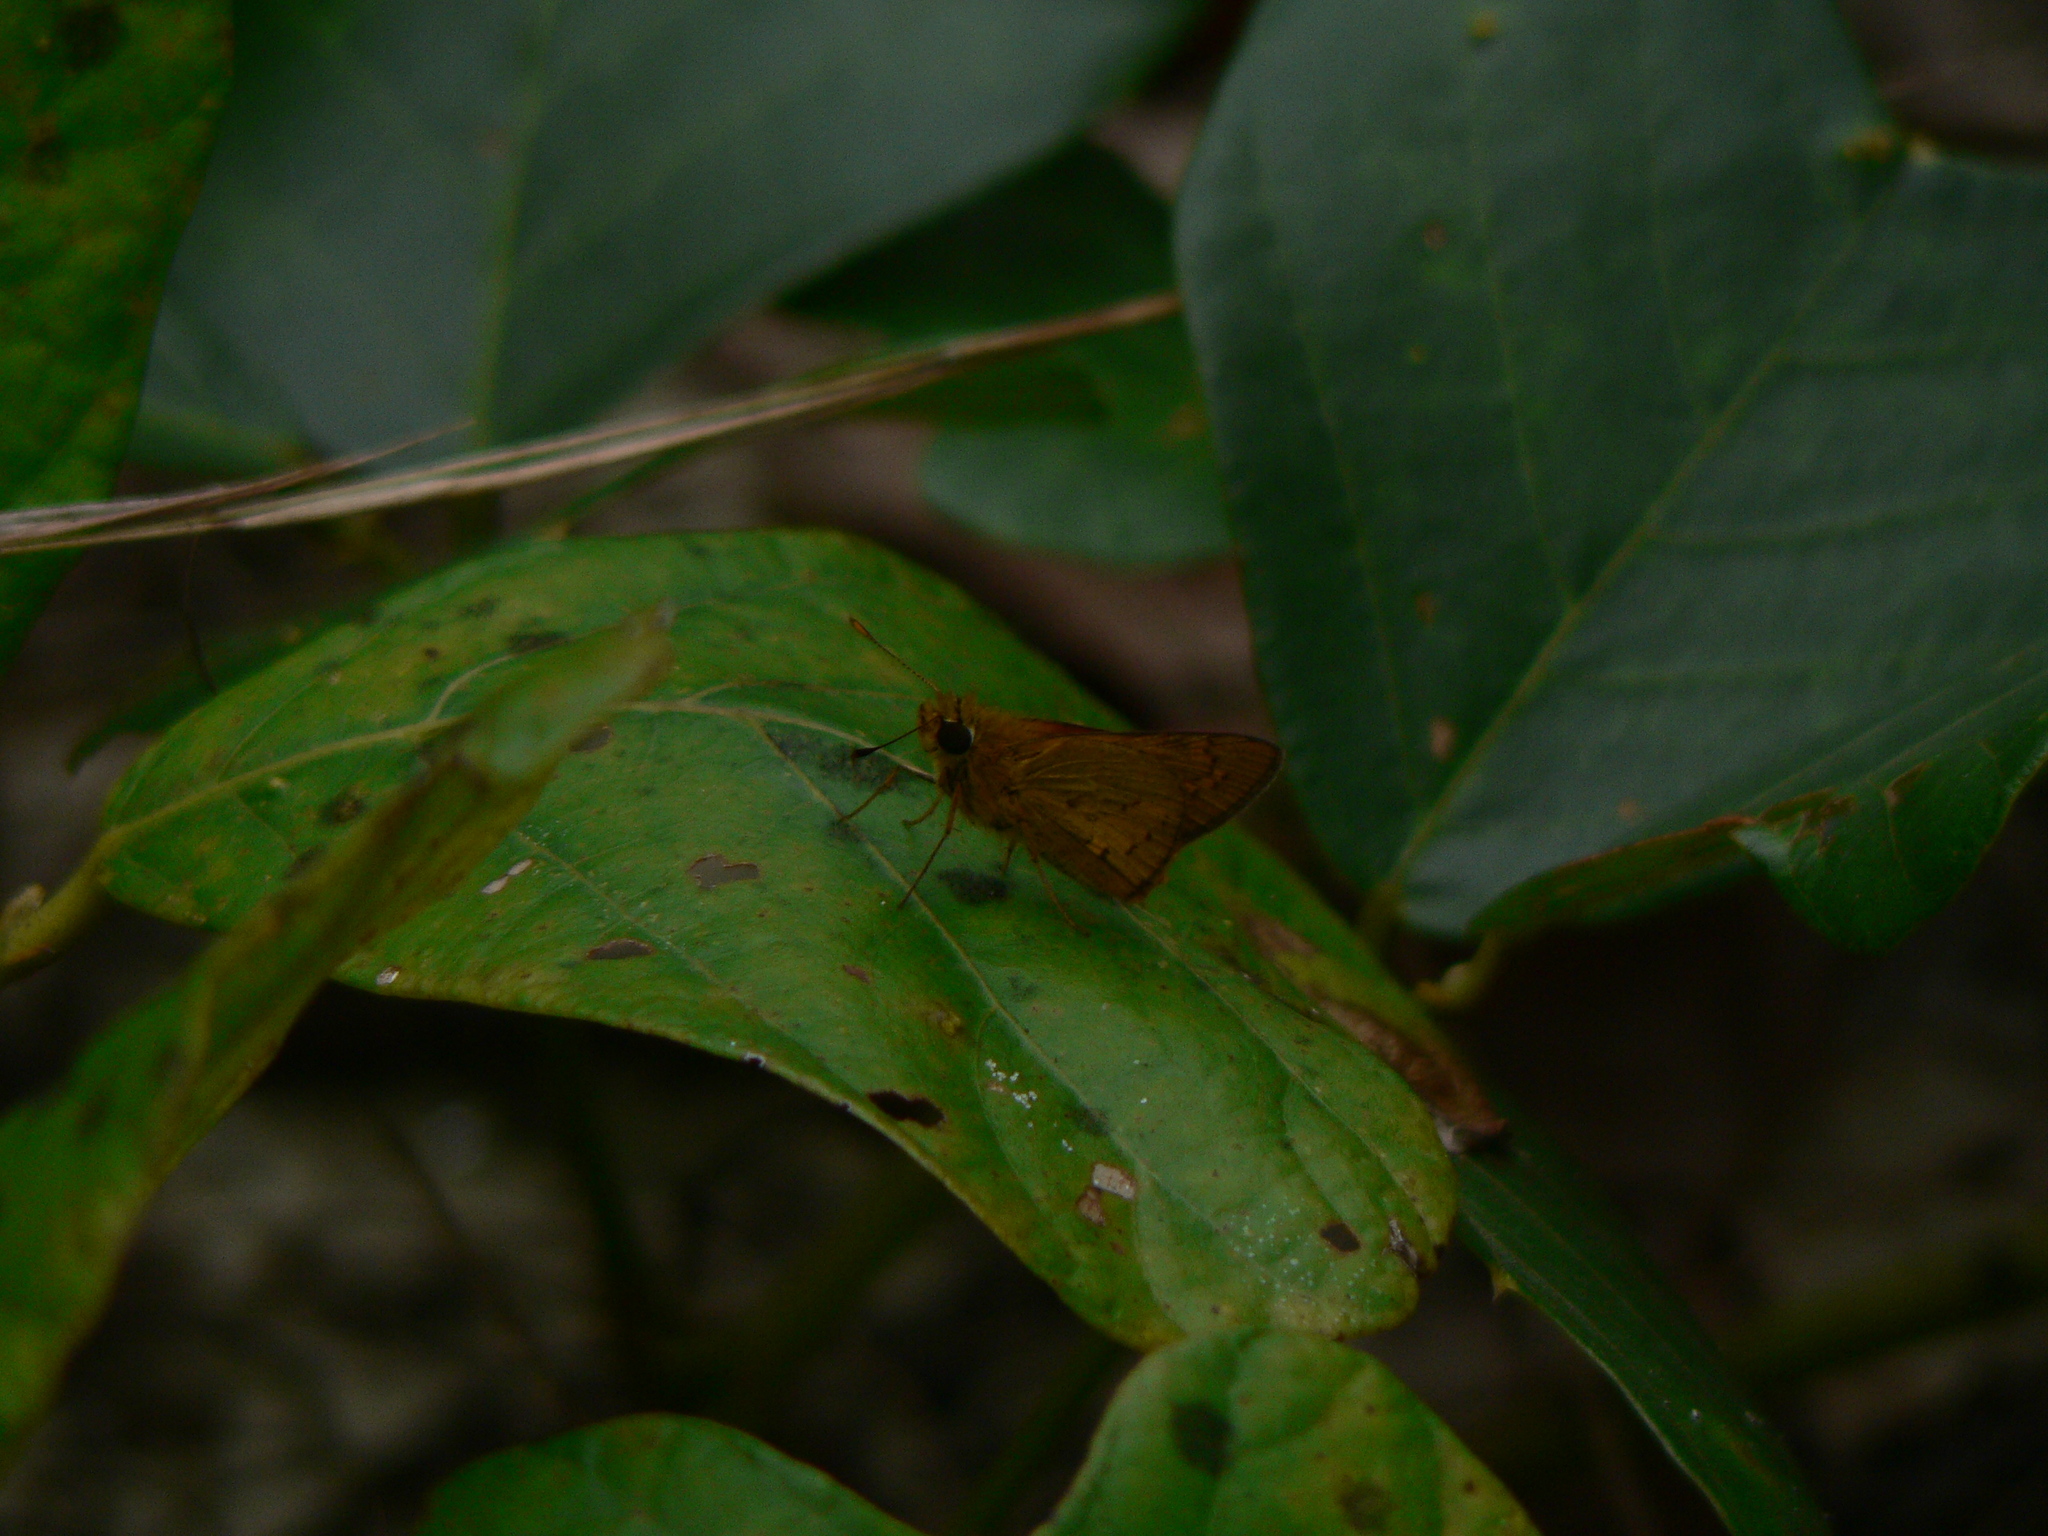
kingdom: Animalia
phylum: Arthropoda
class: Insecta
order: Lepidoptera
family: Hesperiidae
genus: Telicota
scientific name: Telicota paceka
